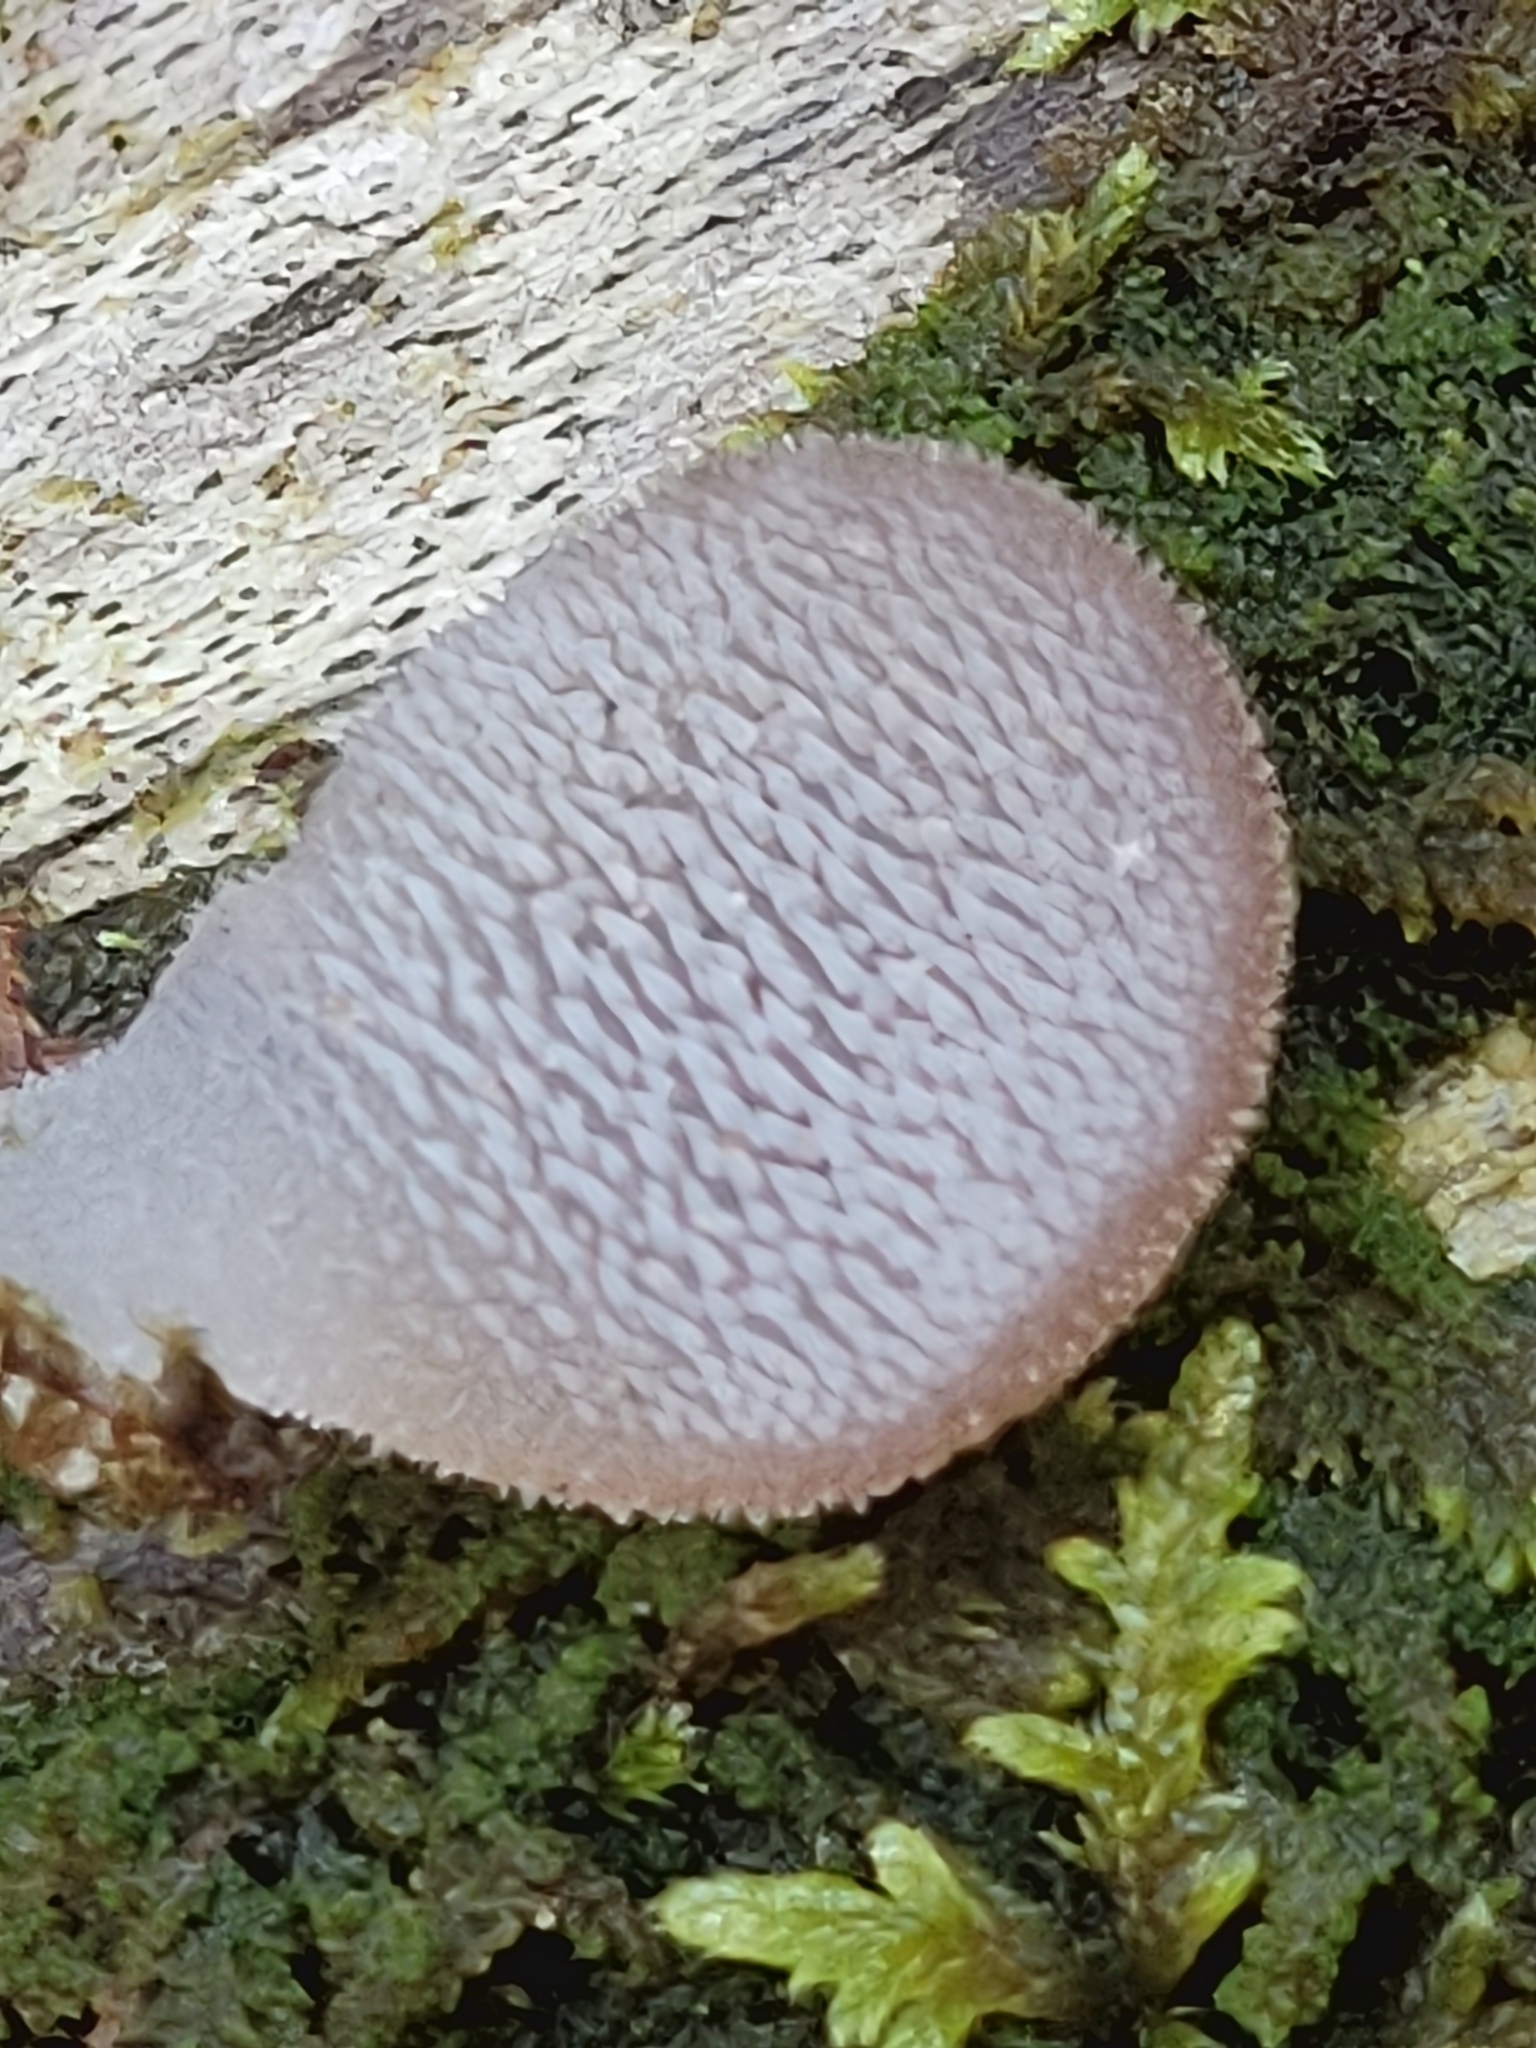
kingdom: Fungi
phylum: Basidiomycota
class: Agaricomycetes
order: Auriculariales
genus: Pseudohydnum
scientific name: Pseudohydnum gelatinosum
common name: Jelly tongue
